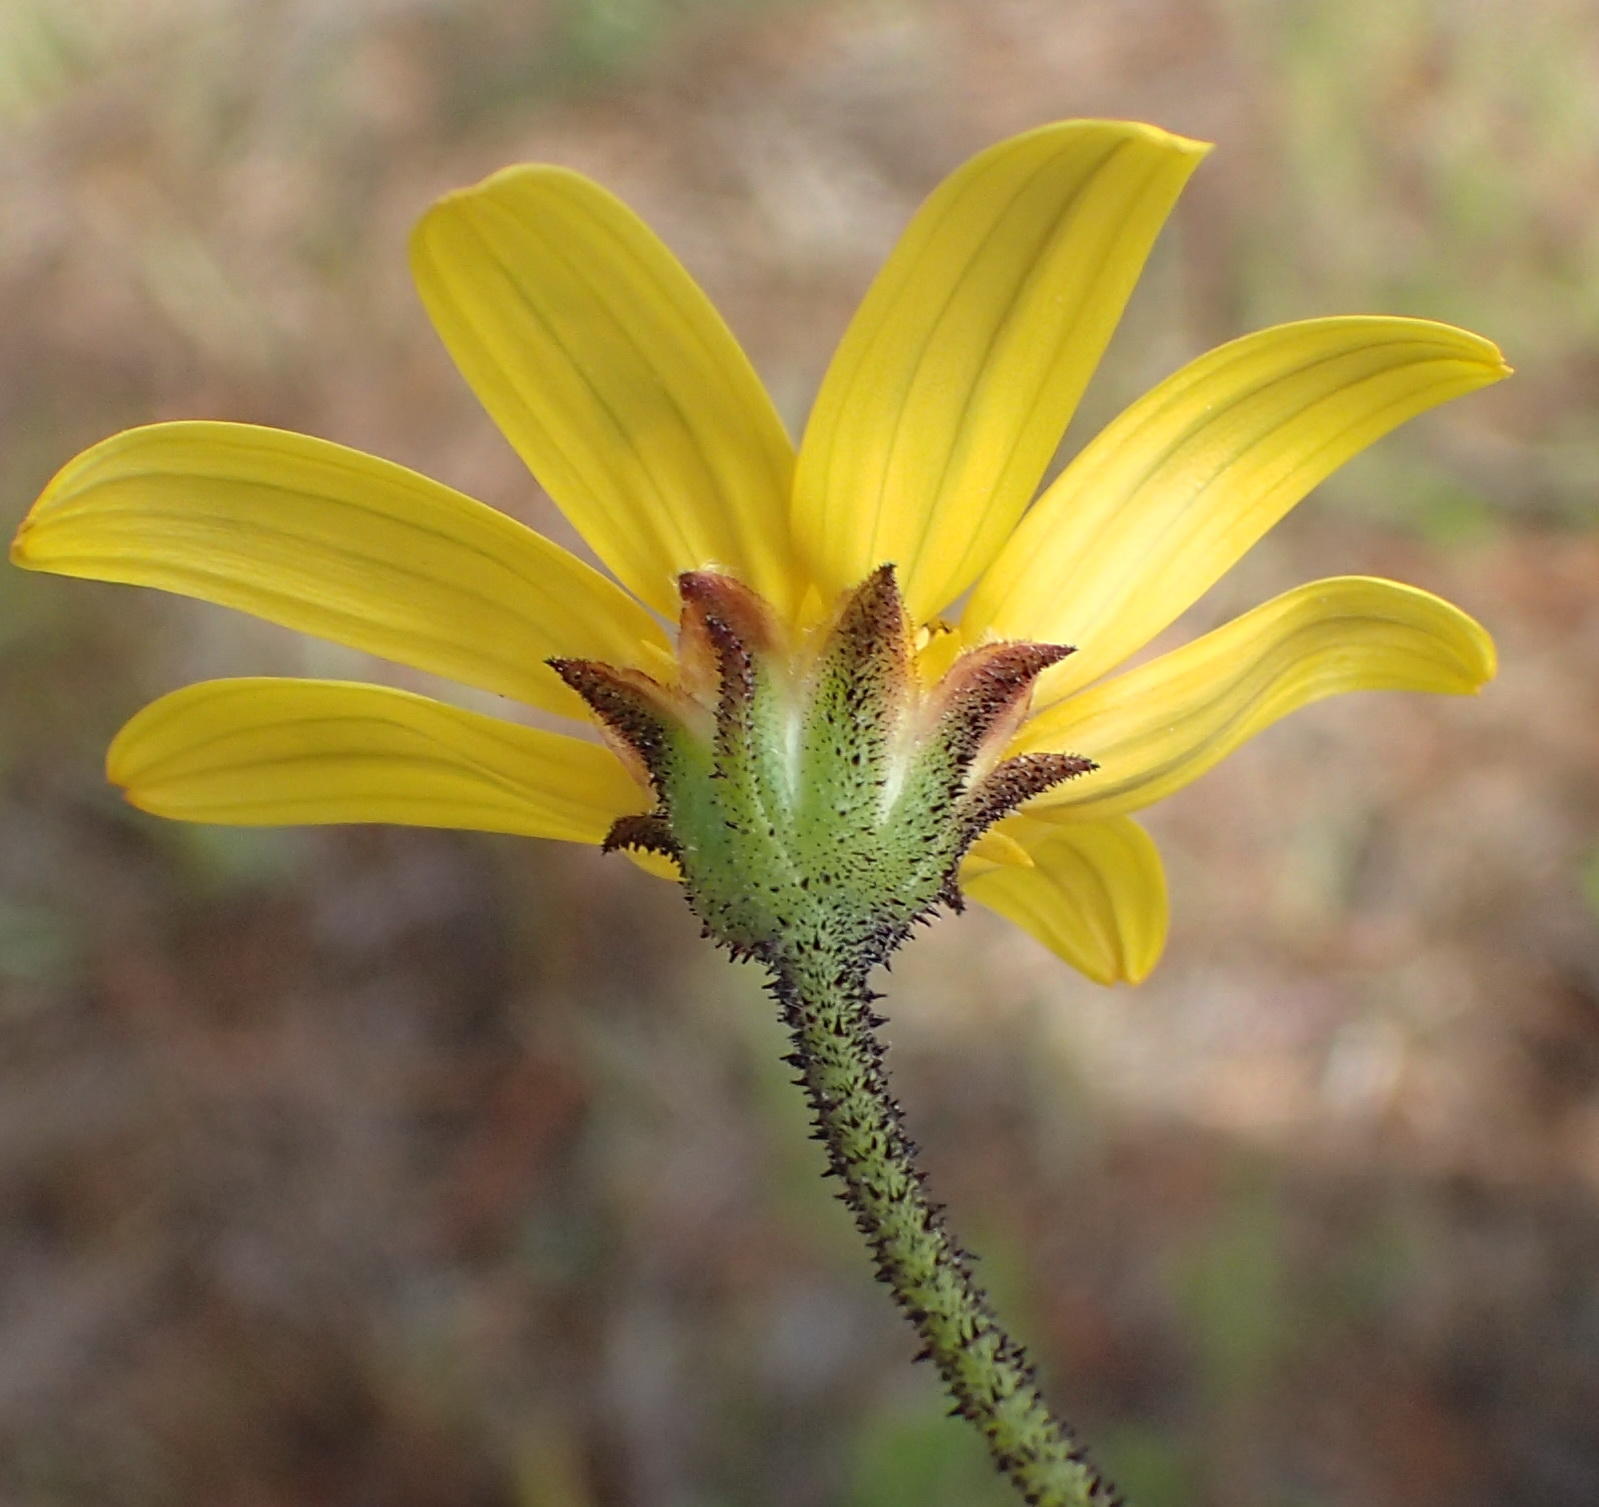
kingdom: Plantae
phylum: Tracheophyta
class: Magnoliopsida
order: Asterales
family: Asteraceae
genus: Osteospermum
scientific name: Osteospermum polygaloides
